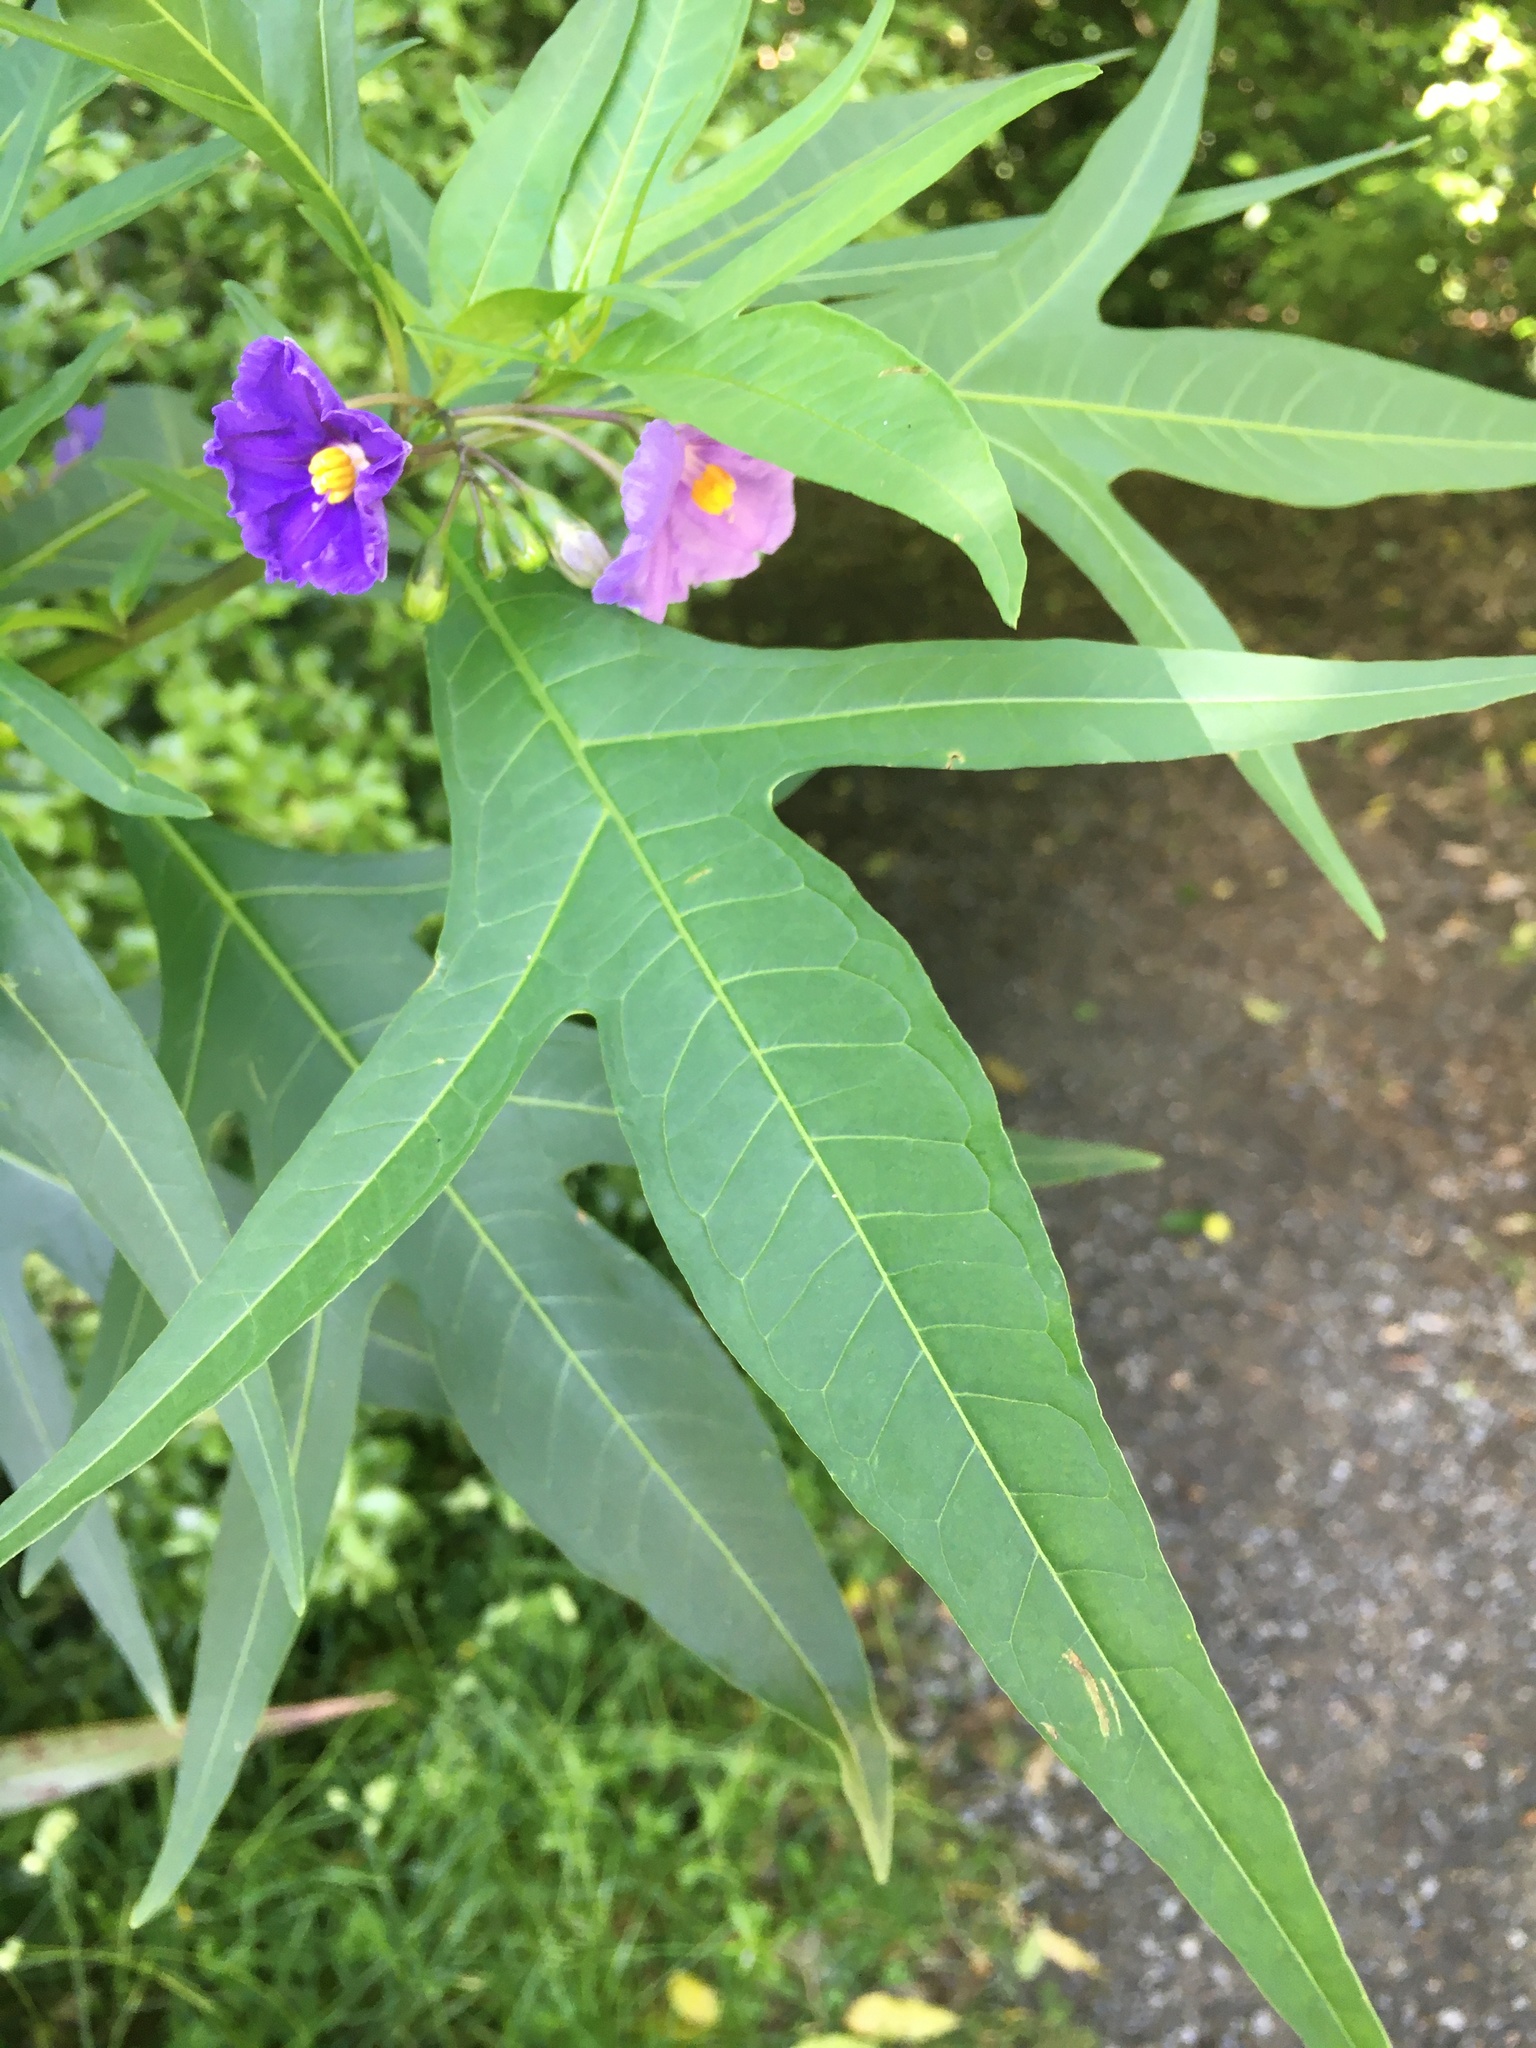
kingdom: Plantae
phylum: Tracheophyta
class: Magnoliopsida
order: Solanales
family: Solanaceae
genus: Solanum
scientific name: Solanum laciniatum
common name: Kangaroo-apple
